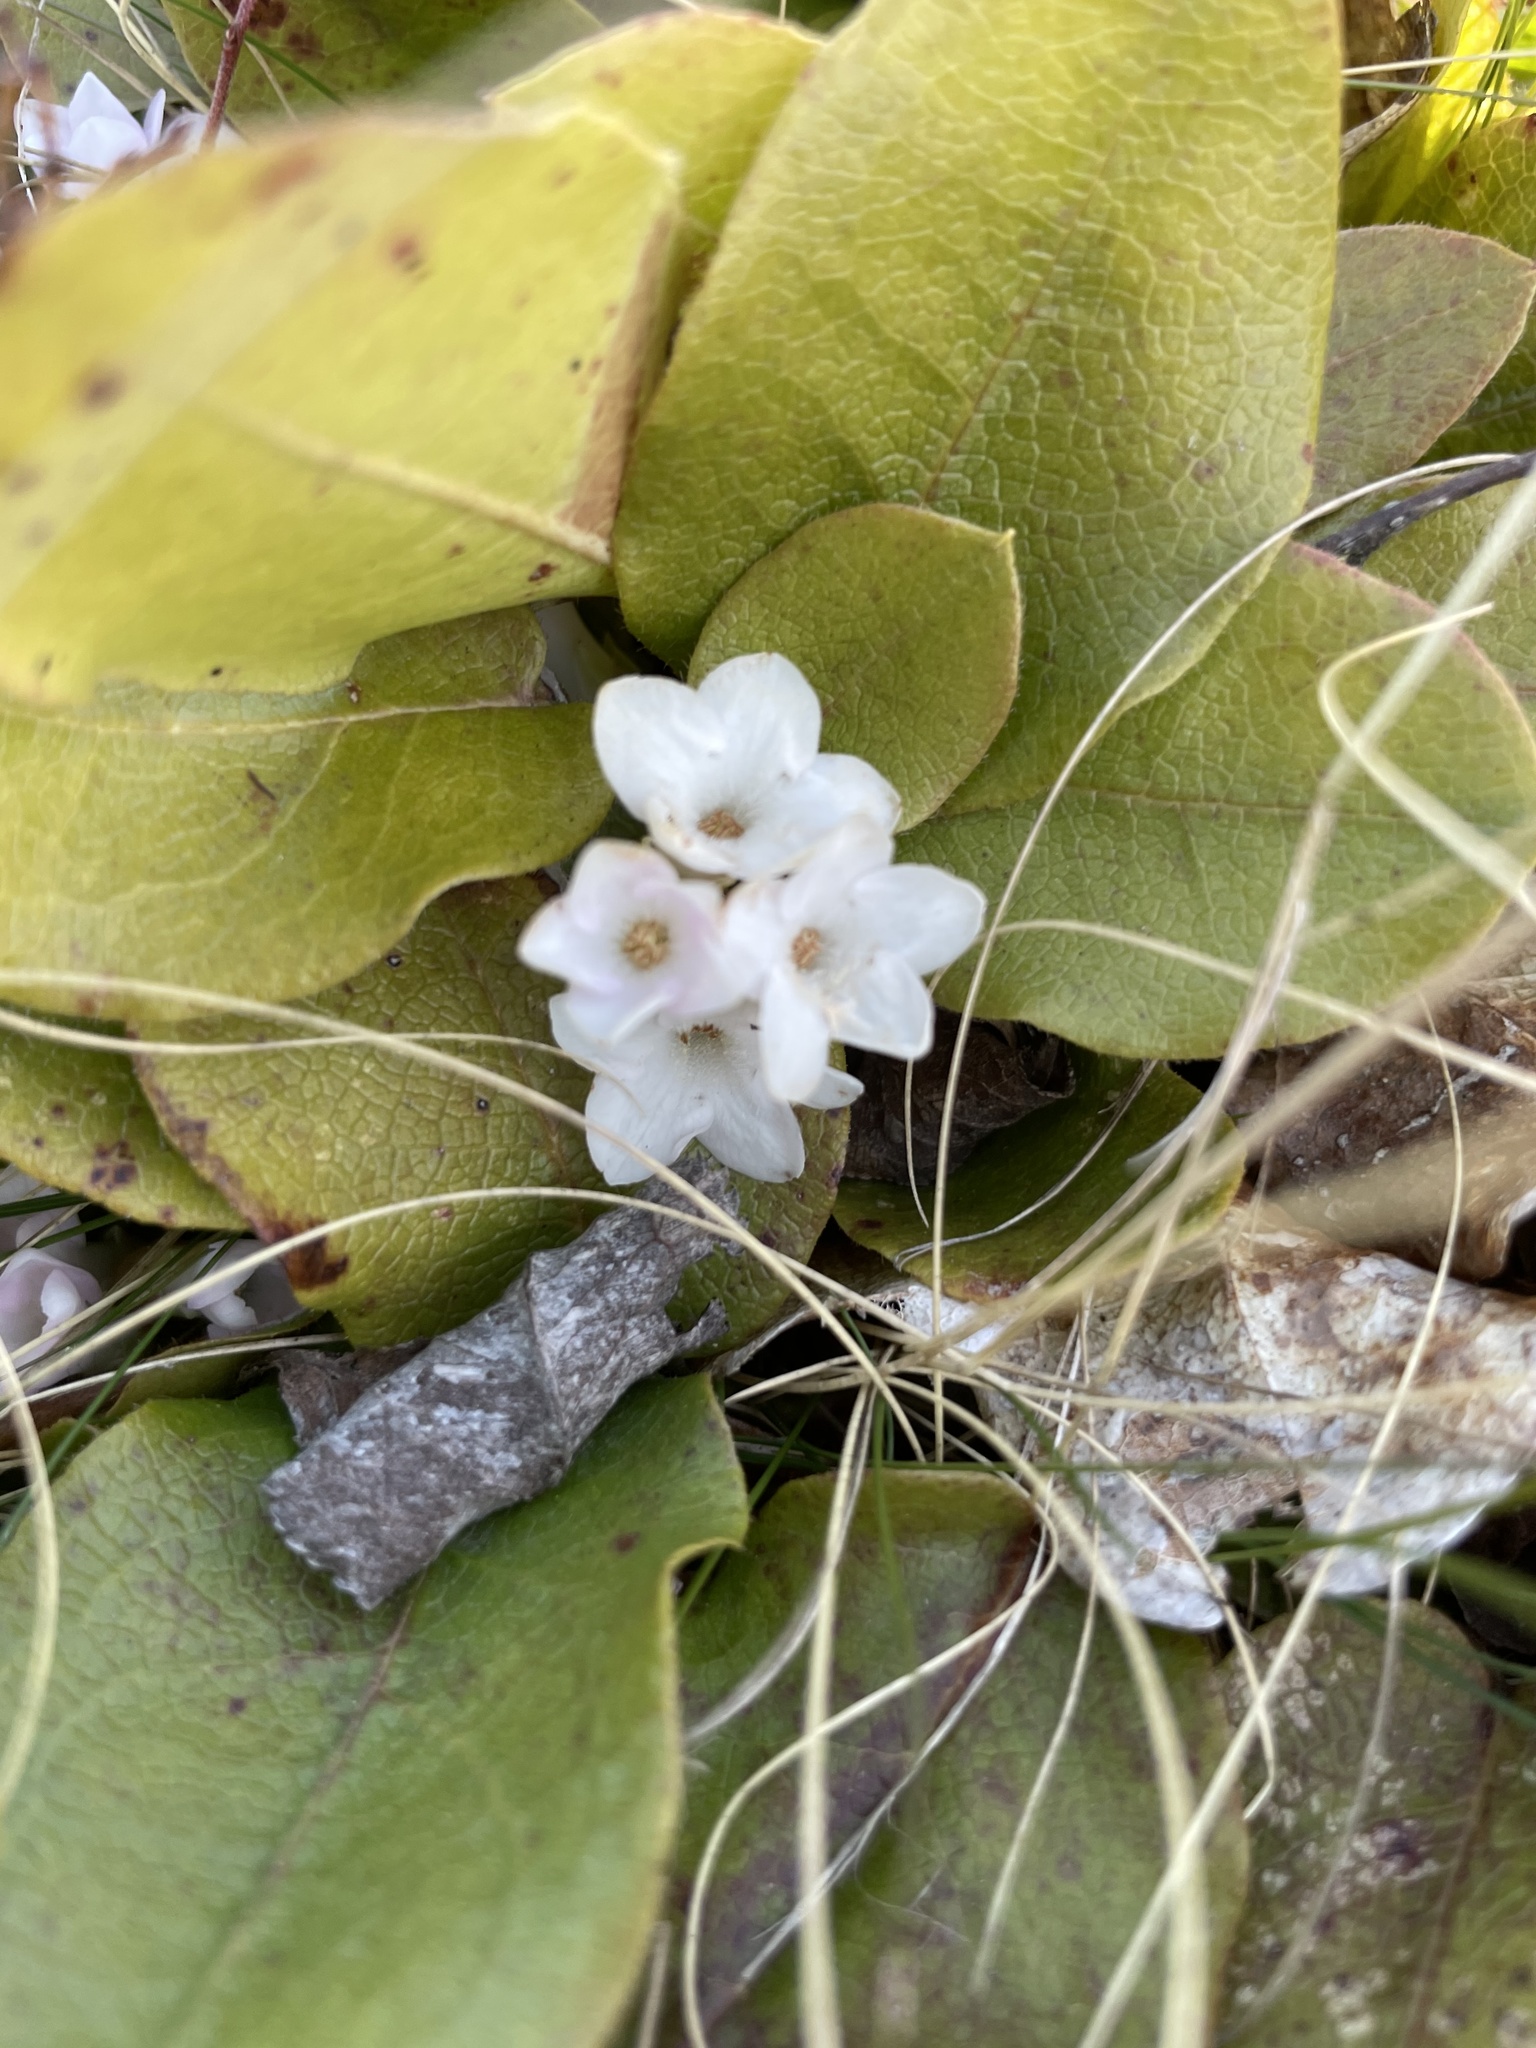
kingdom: Plantae
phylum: Tracheophyta
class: Magnoliopsida
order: Ericales
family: Ericaceae
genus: Epigaea
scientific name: Epigaea repens
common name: Gravelroot
